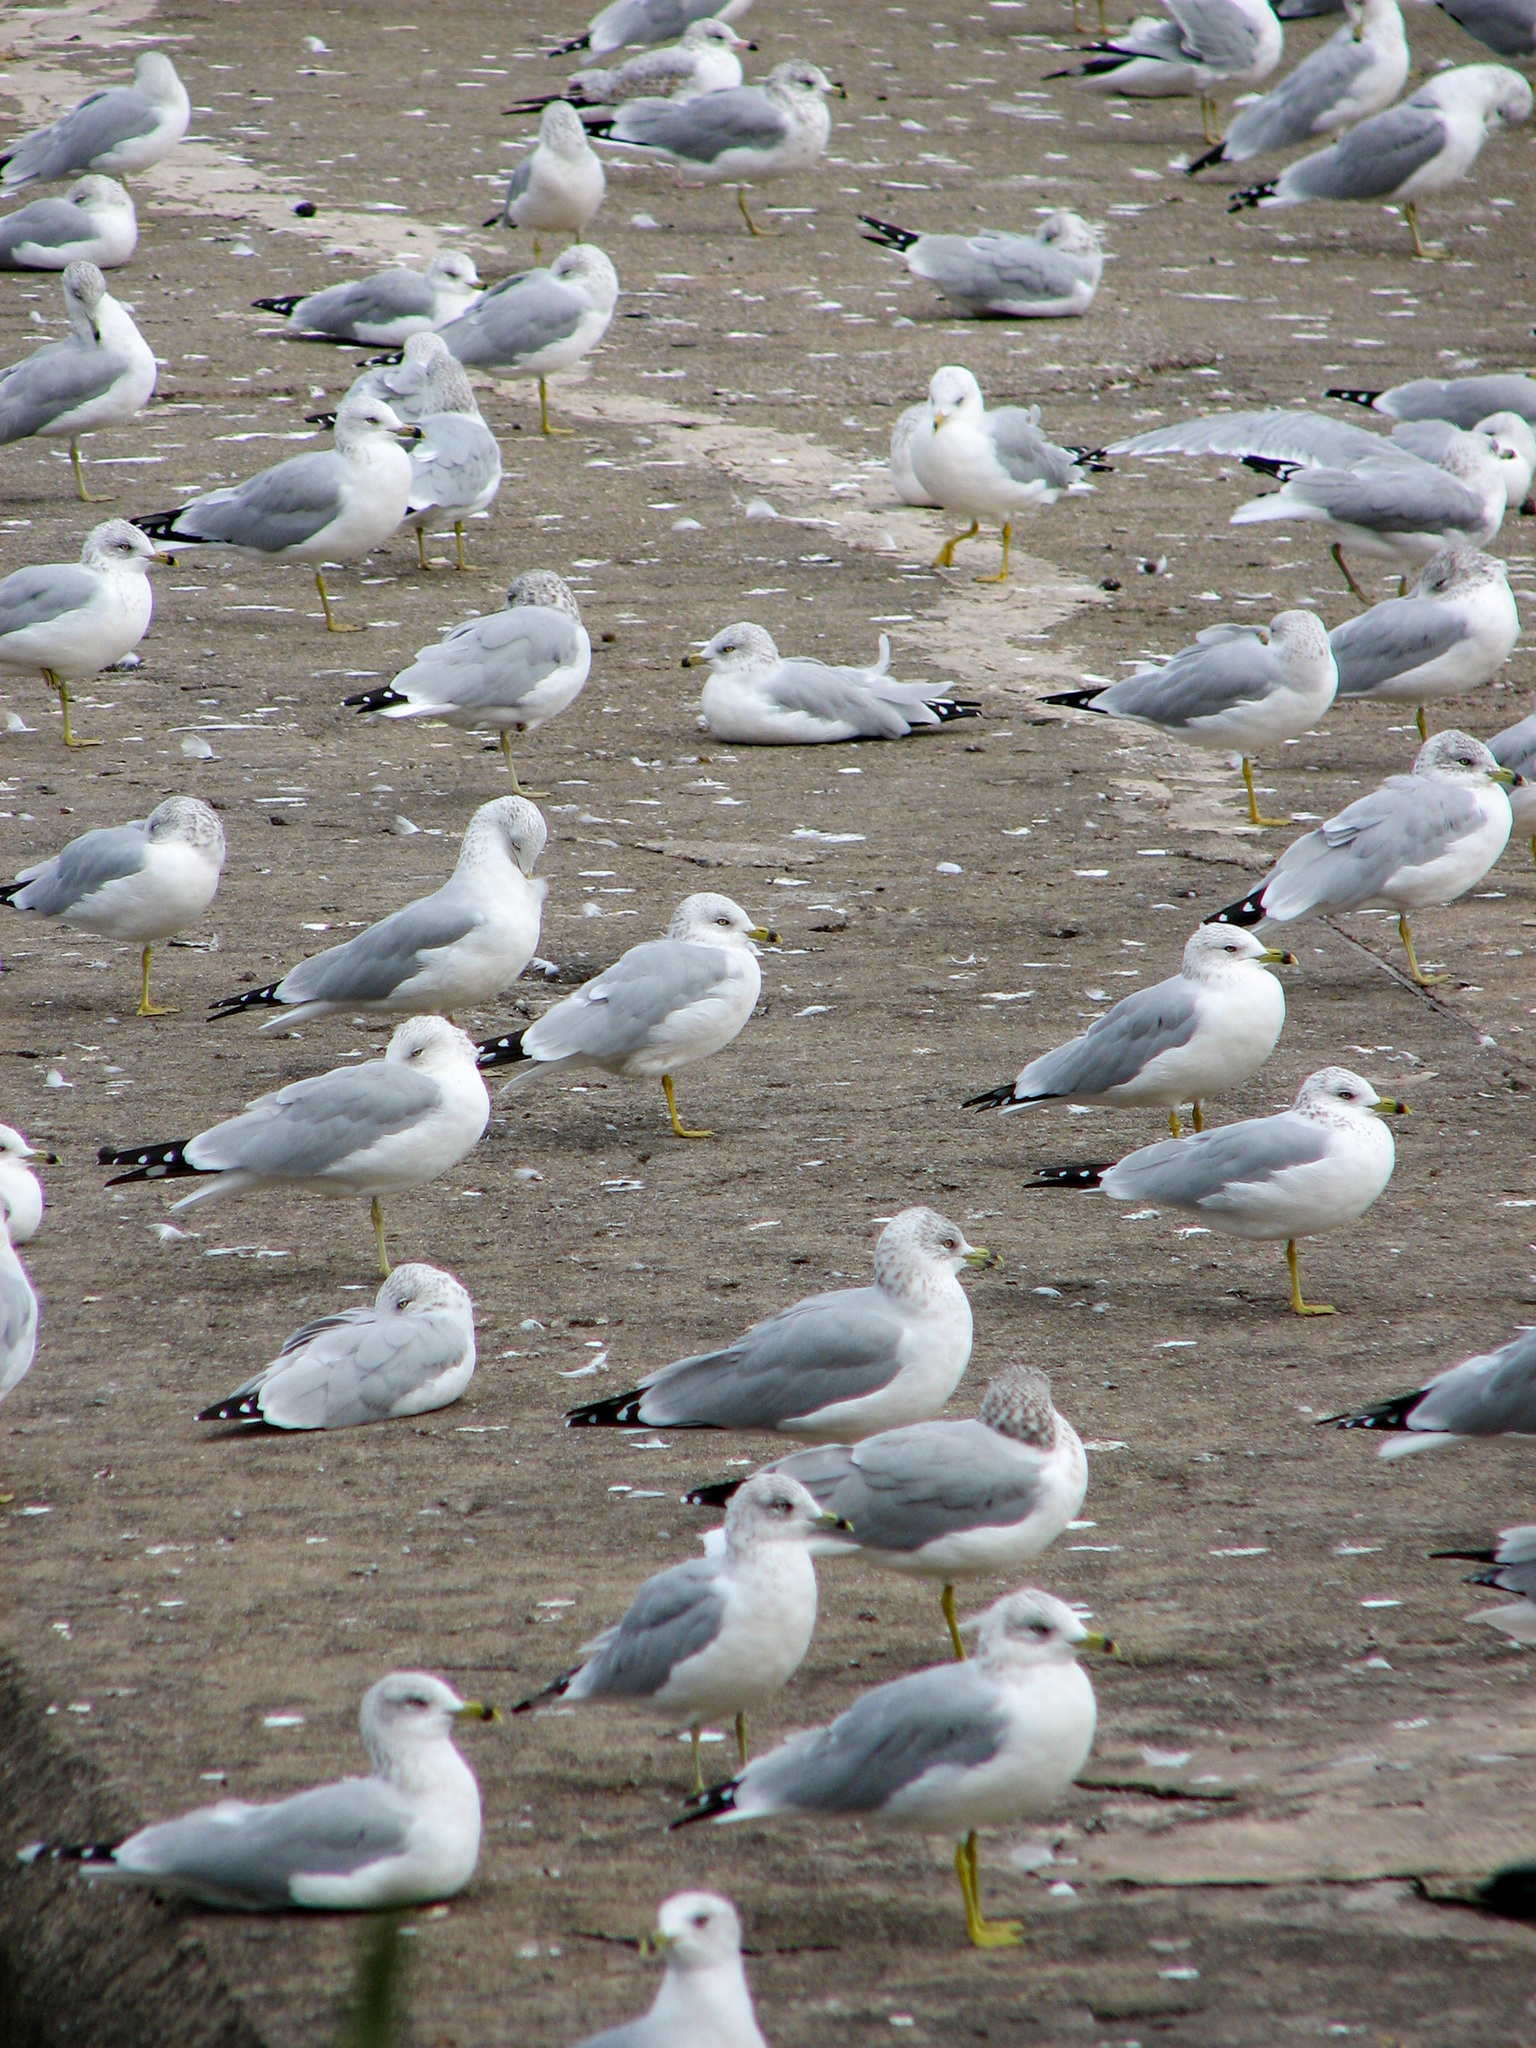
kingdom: Animalia
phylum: Chordata
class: Aves
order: Charadriiformes
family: Laridae
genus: Larus
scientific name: Larus delawarensis
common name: Ring-billed gull
